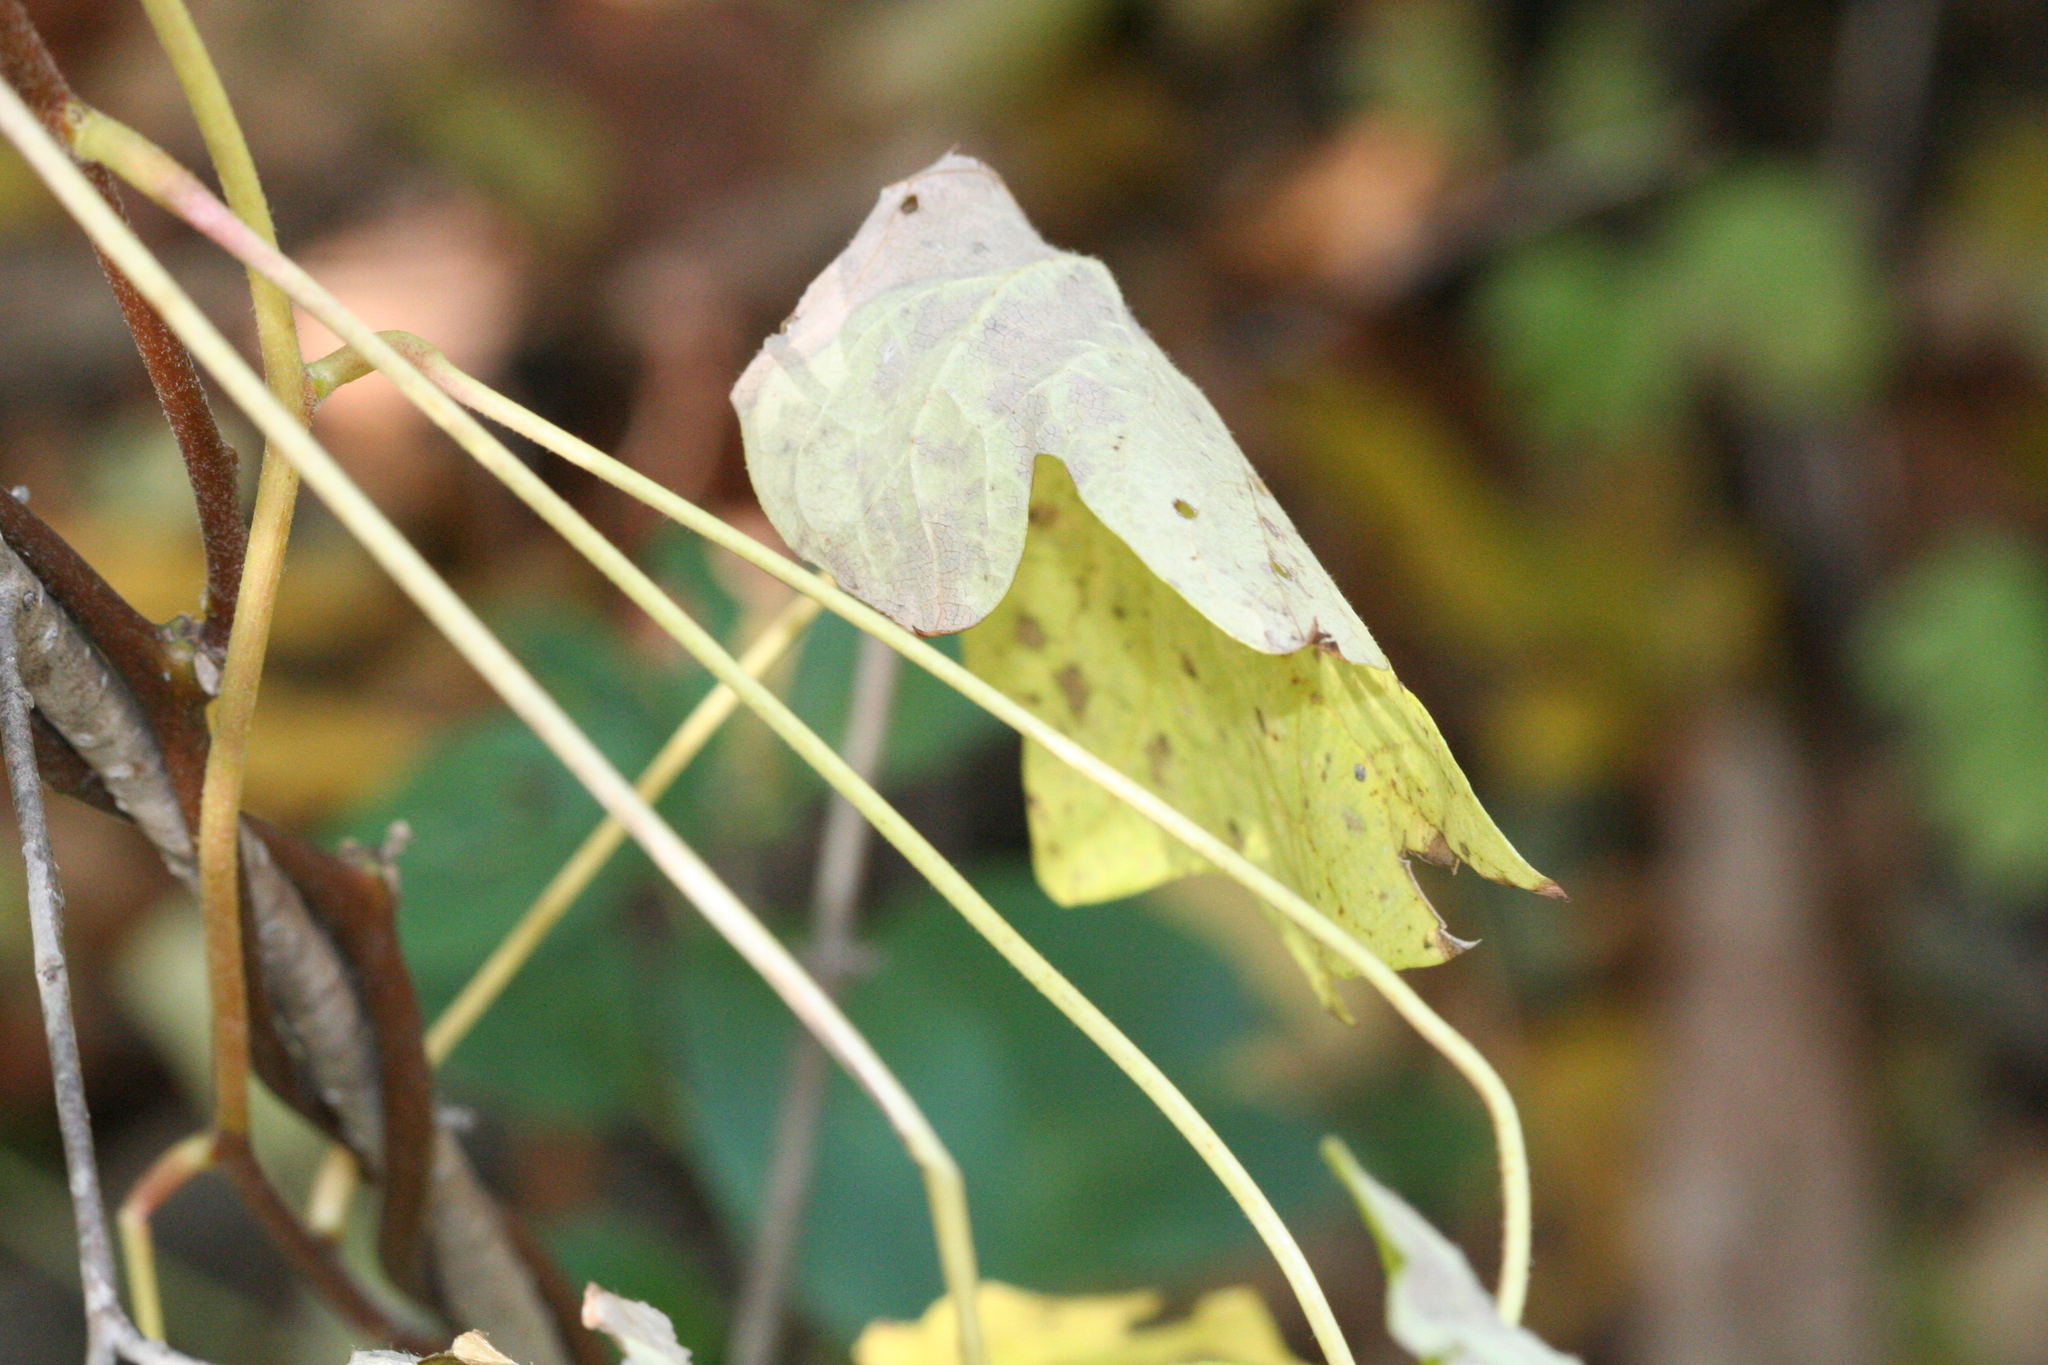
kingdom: Plantae
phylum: Tracheophyta
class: Magnoliopsida
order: Ranunculales
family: Menispermaceae
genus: Menispermum
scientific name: Menispermum canadense
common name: Moonseed
